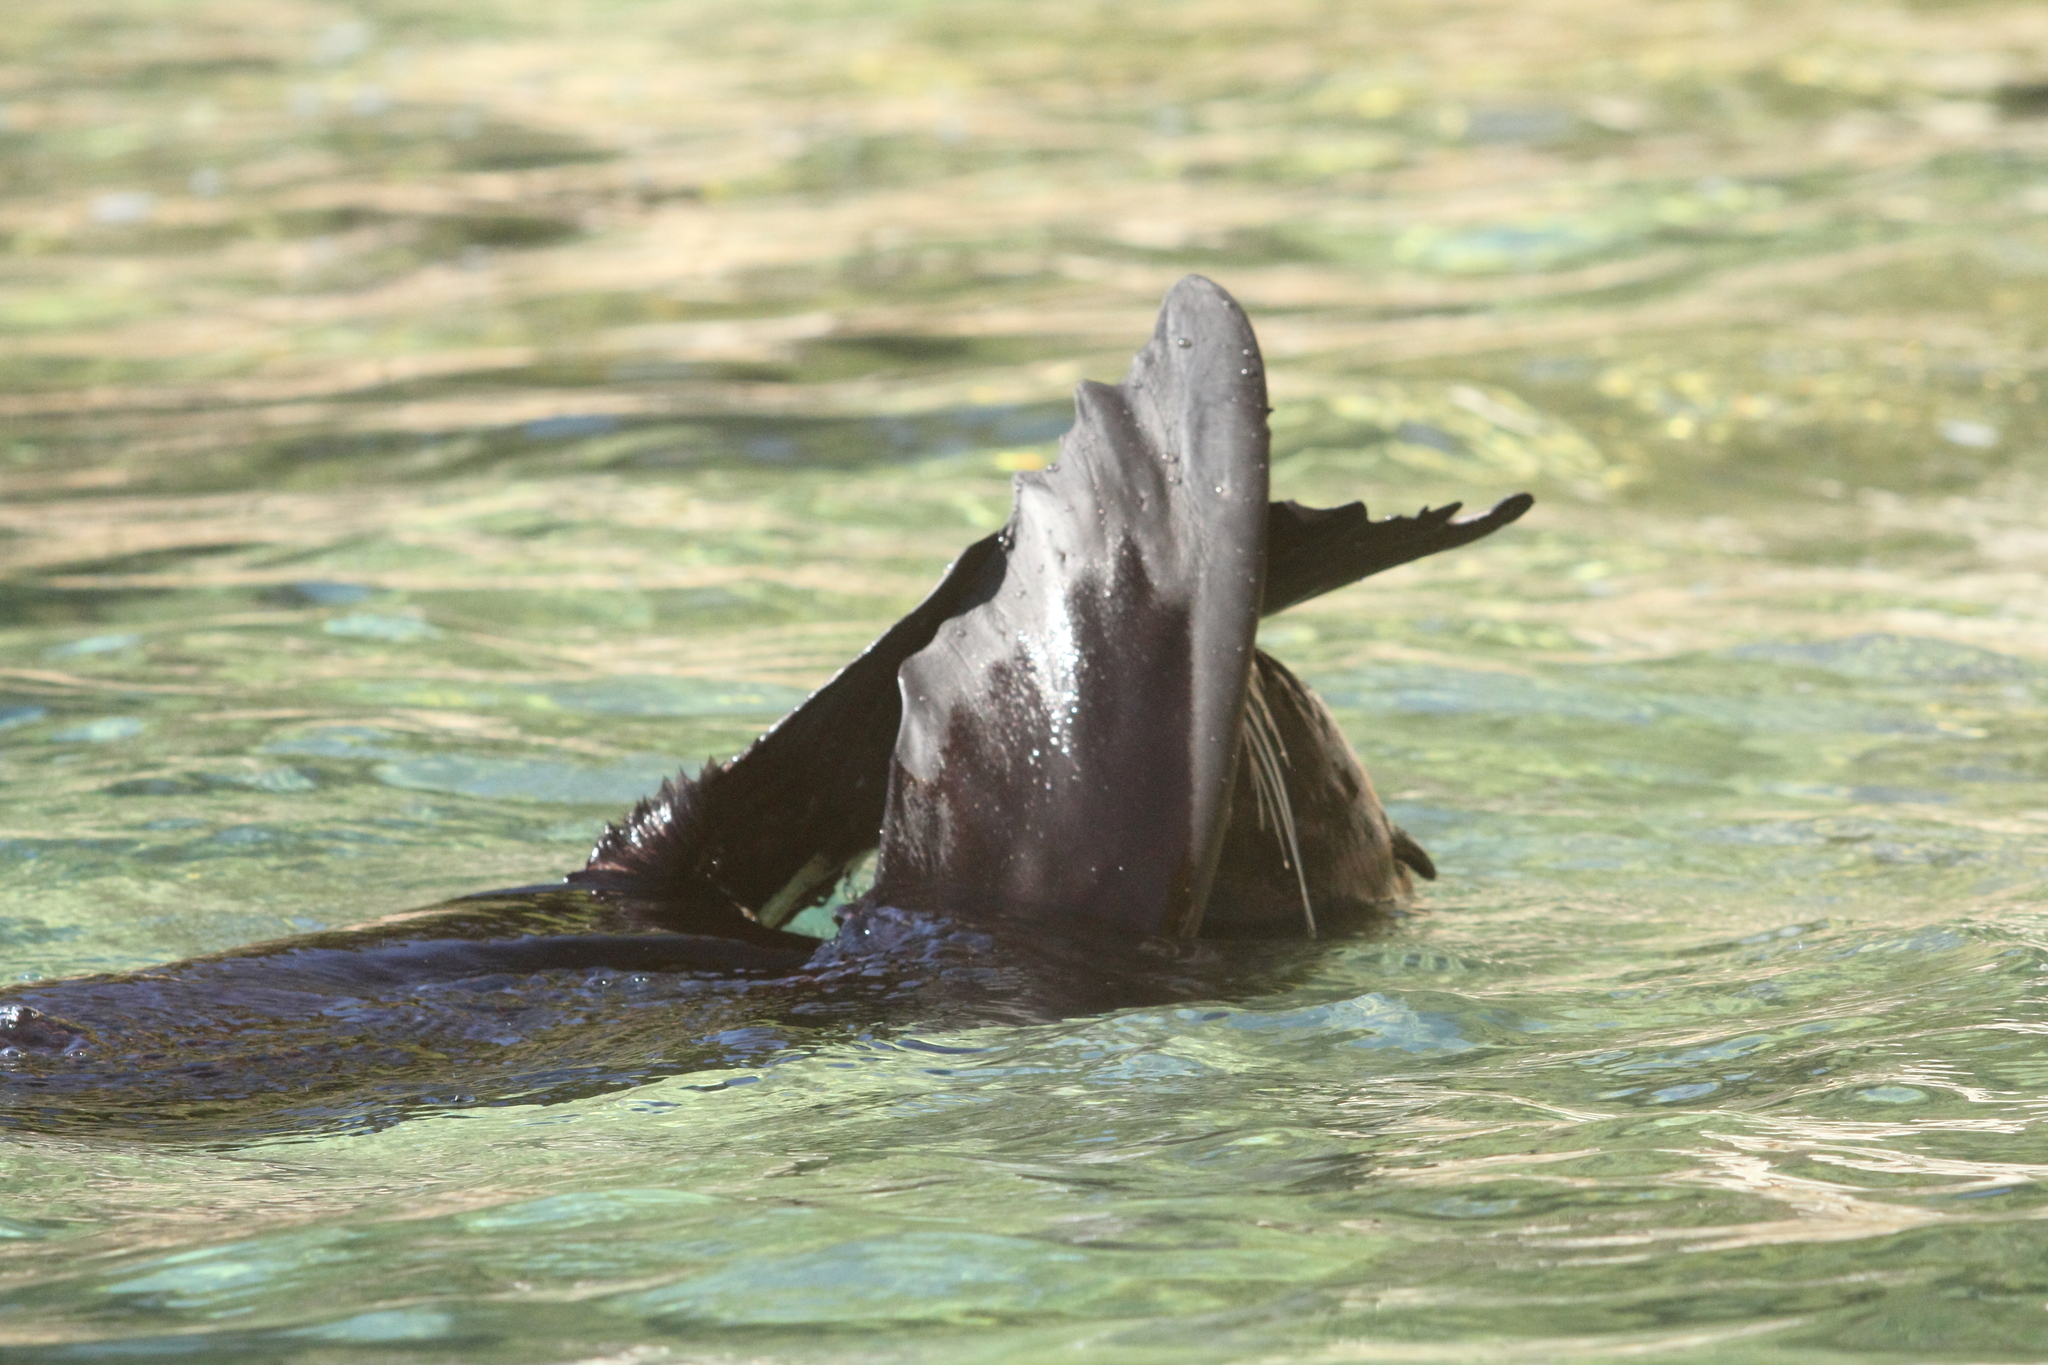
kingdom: Animalia
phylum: Chordata
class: Mammalia
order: Carnivora
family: Otariidae
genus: Arctocephalus
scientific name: Arctocephalus forsteri
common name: New zealand fur seal
